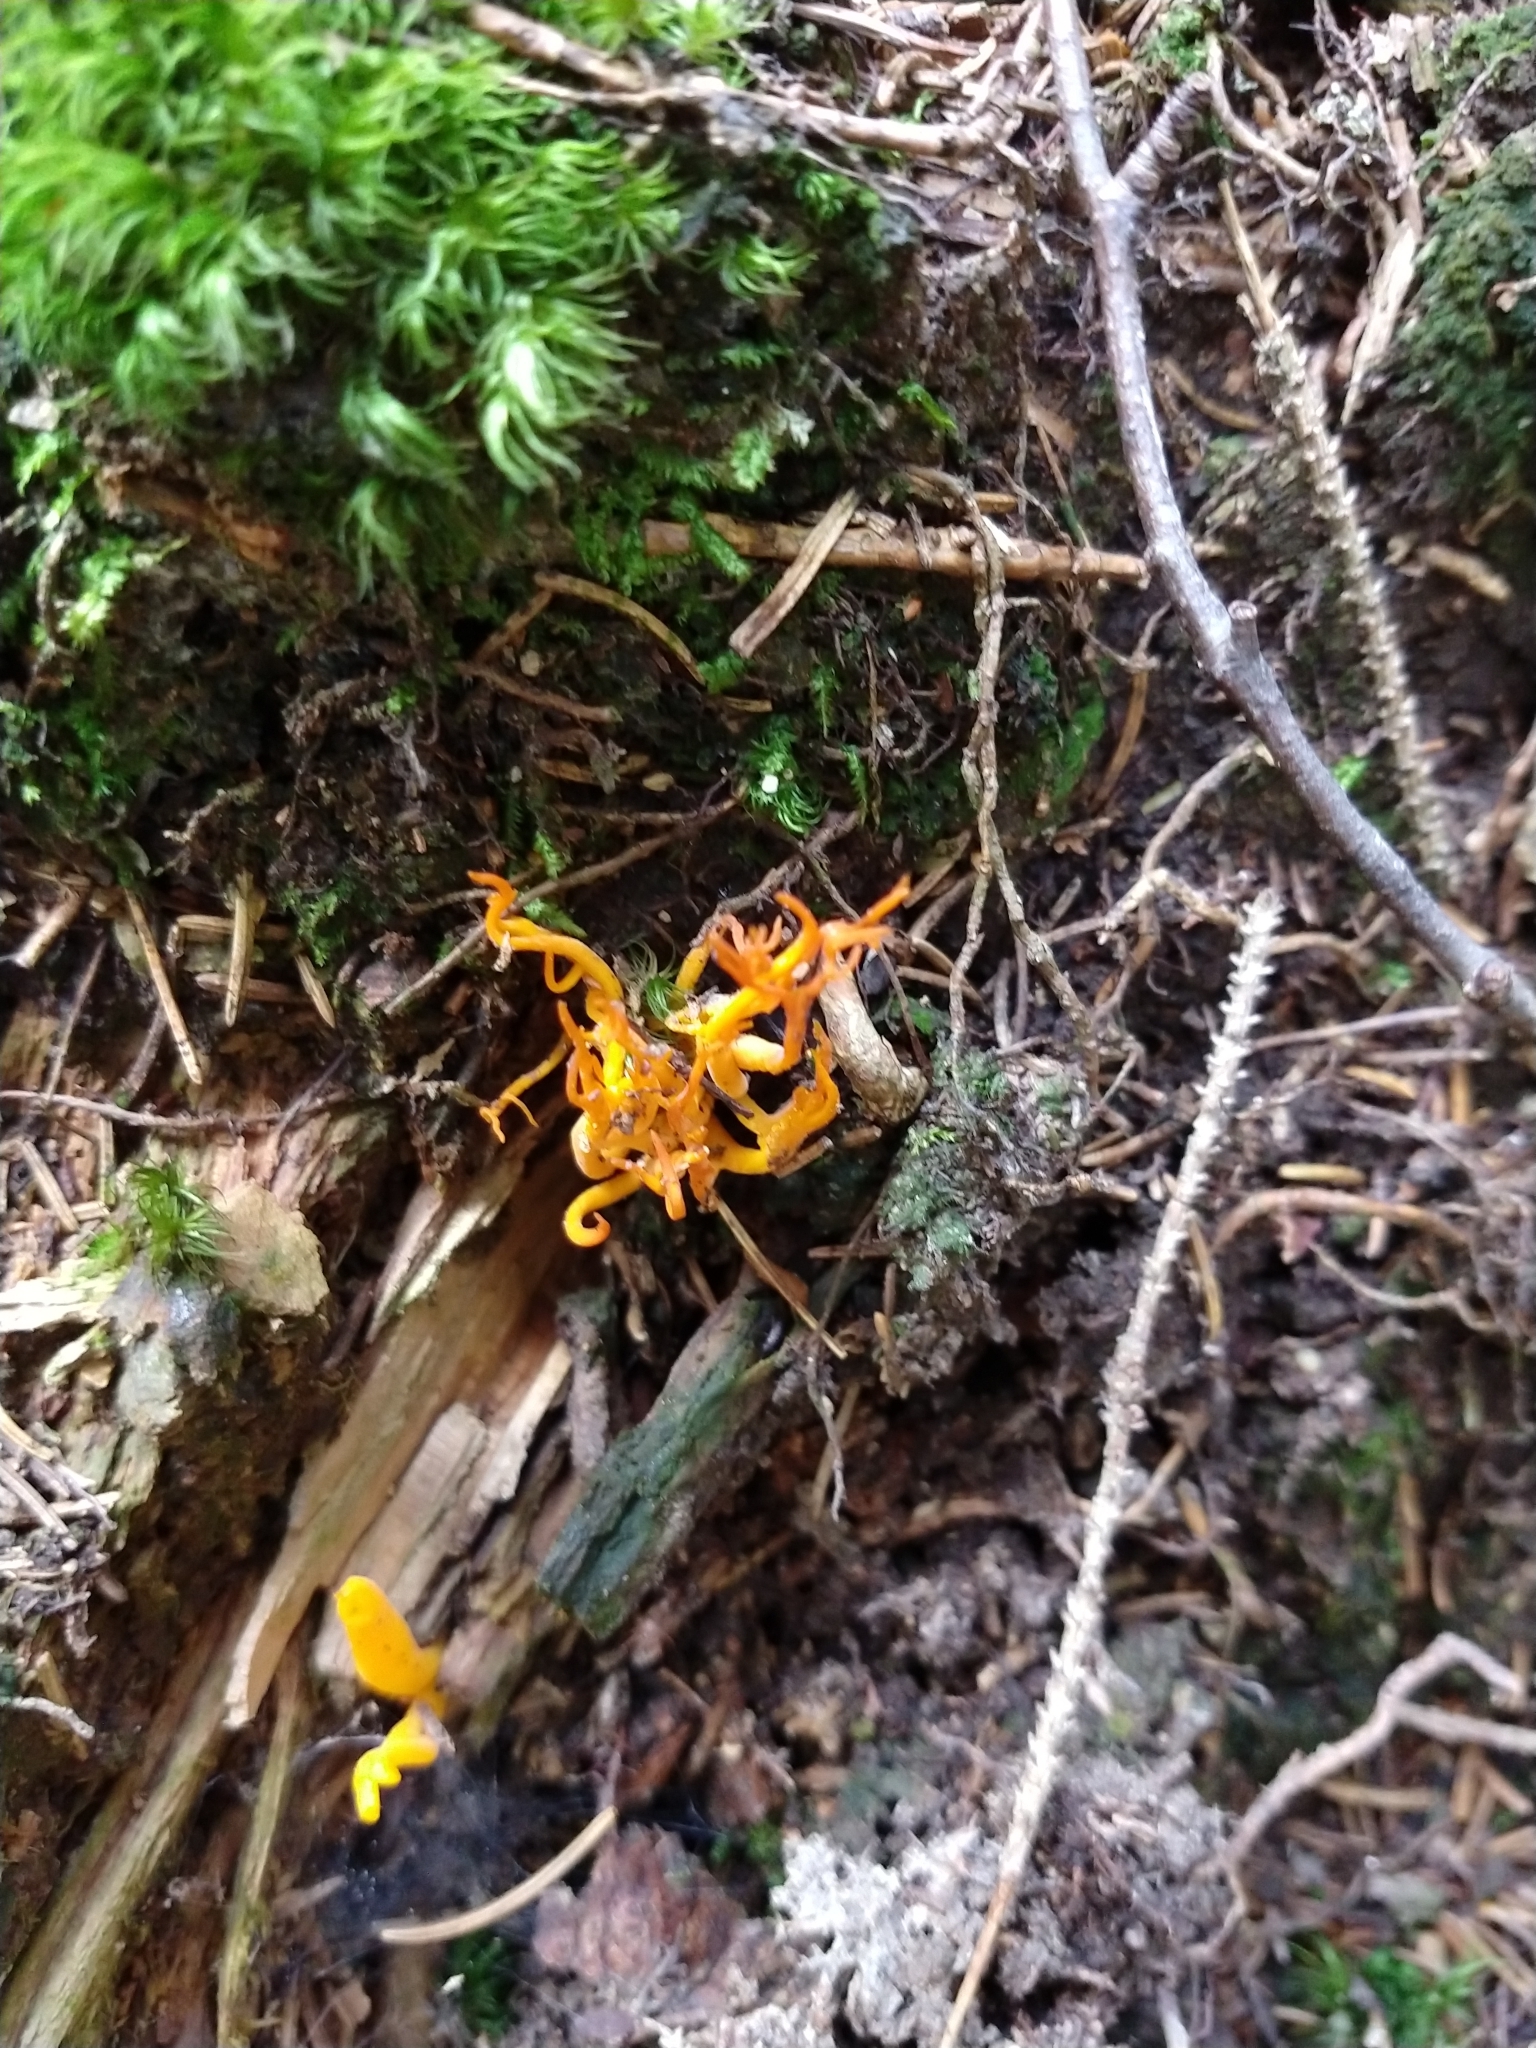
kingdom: Fungi
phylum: Basidiomycota
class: Dacrymycetes
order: Dacrymycetales
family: Dacrymycetaceae
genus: Calocera
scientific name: Calocera viscosa
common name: Yellow stagshorn
